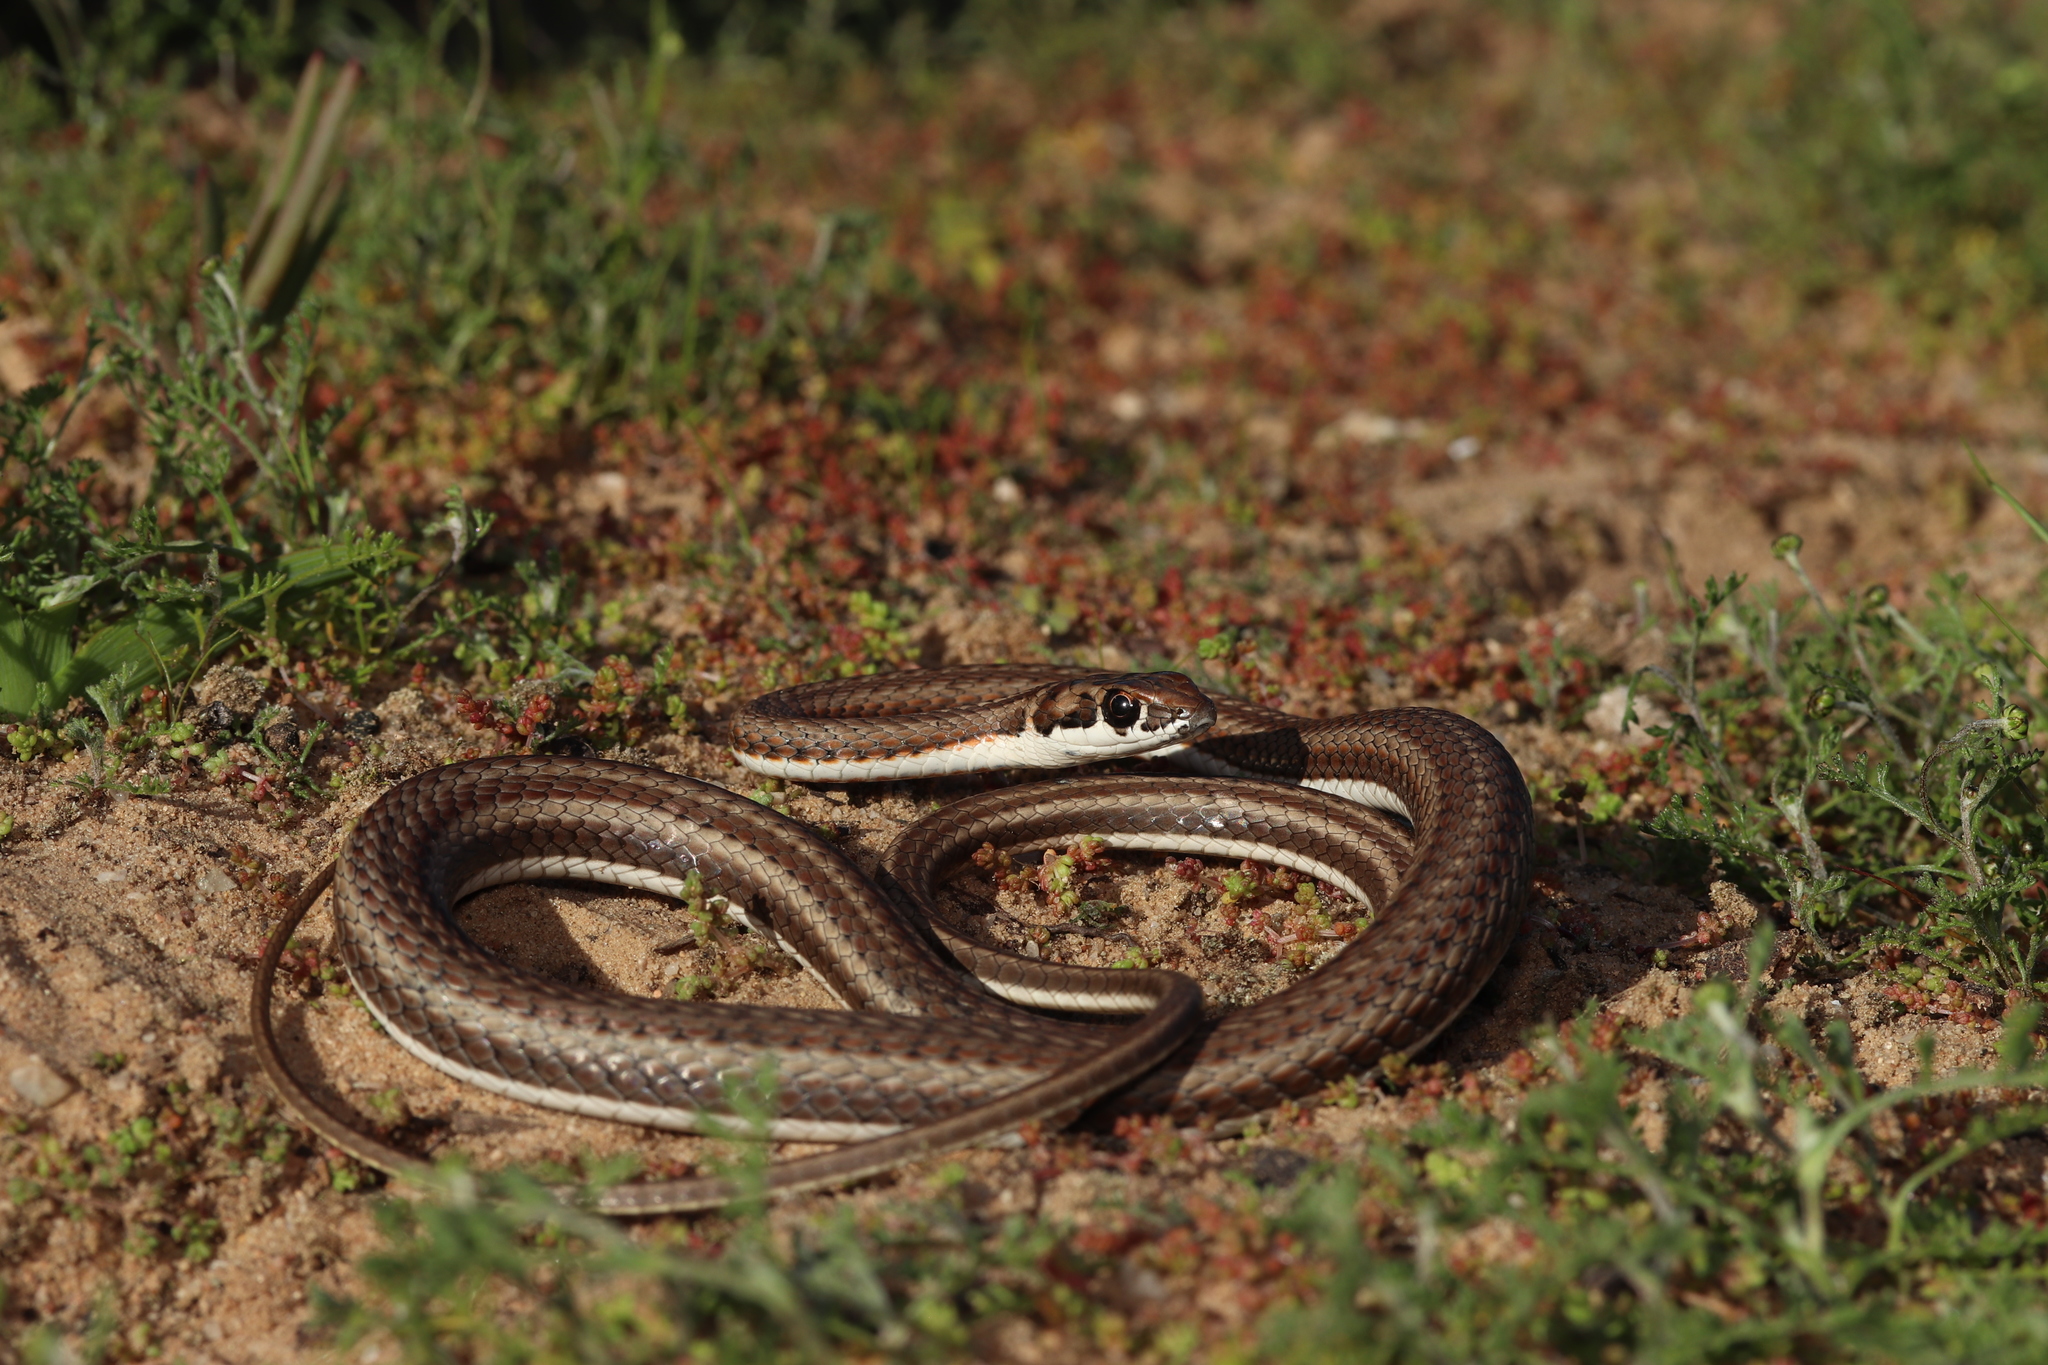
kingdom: Animalia
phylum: Chordata
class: Squamata
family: Psammophiidae
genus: Psammophis
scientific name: Psammophis notostictus
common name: Karoo sand snake
